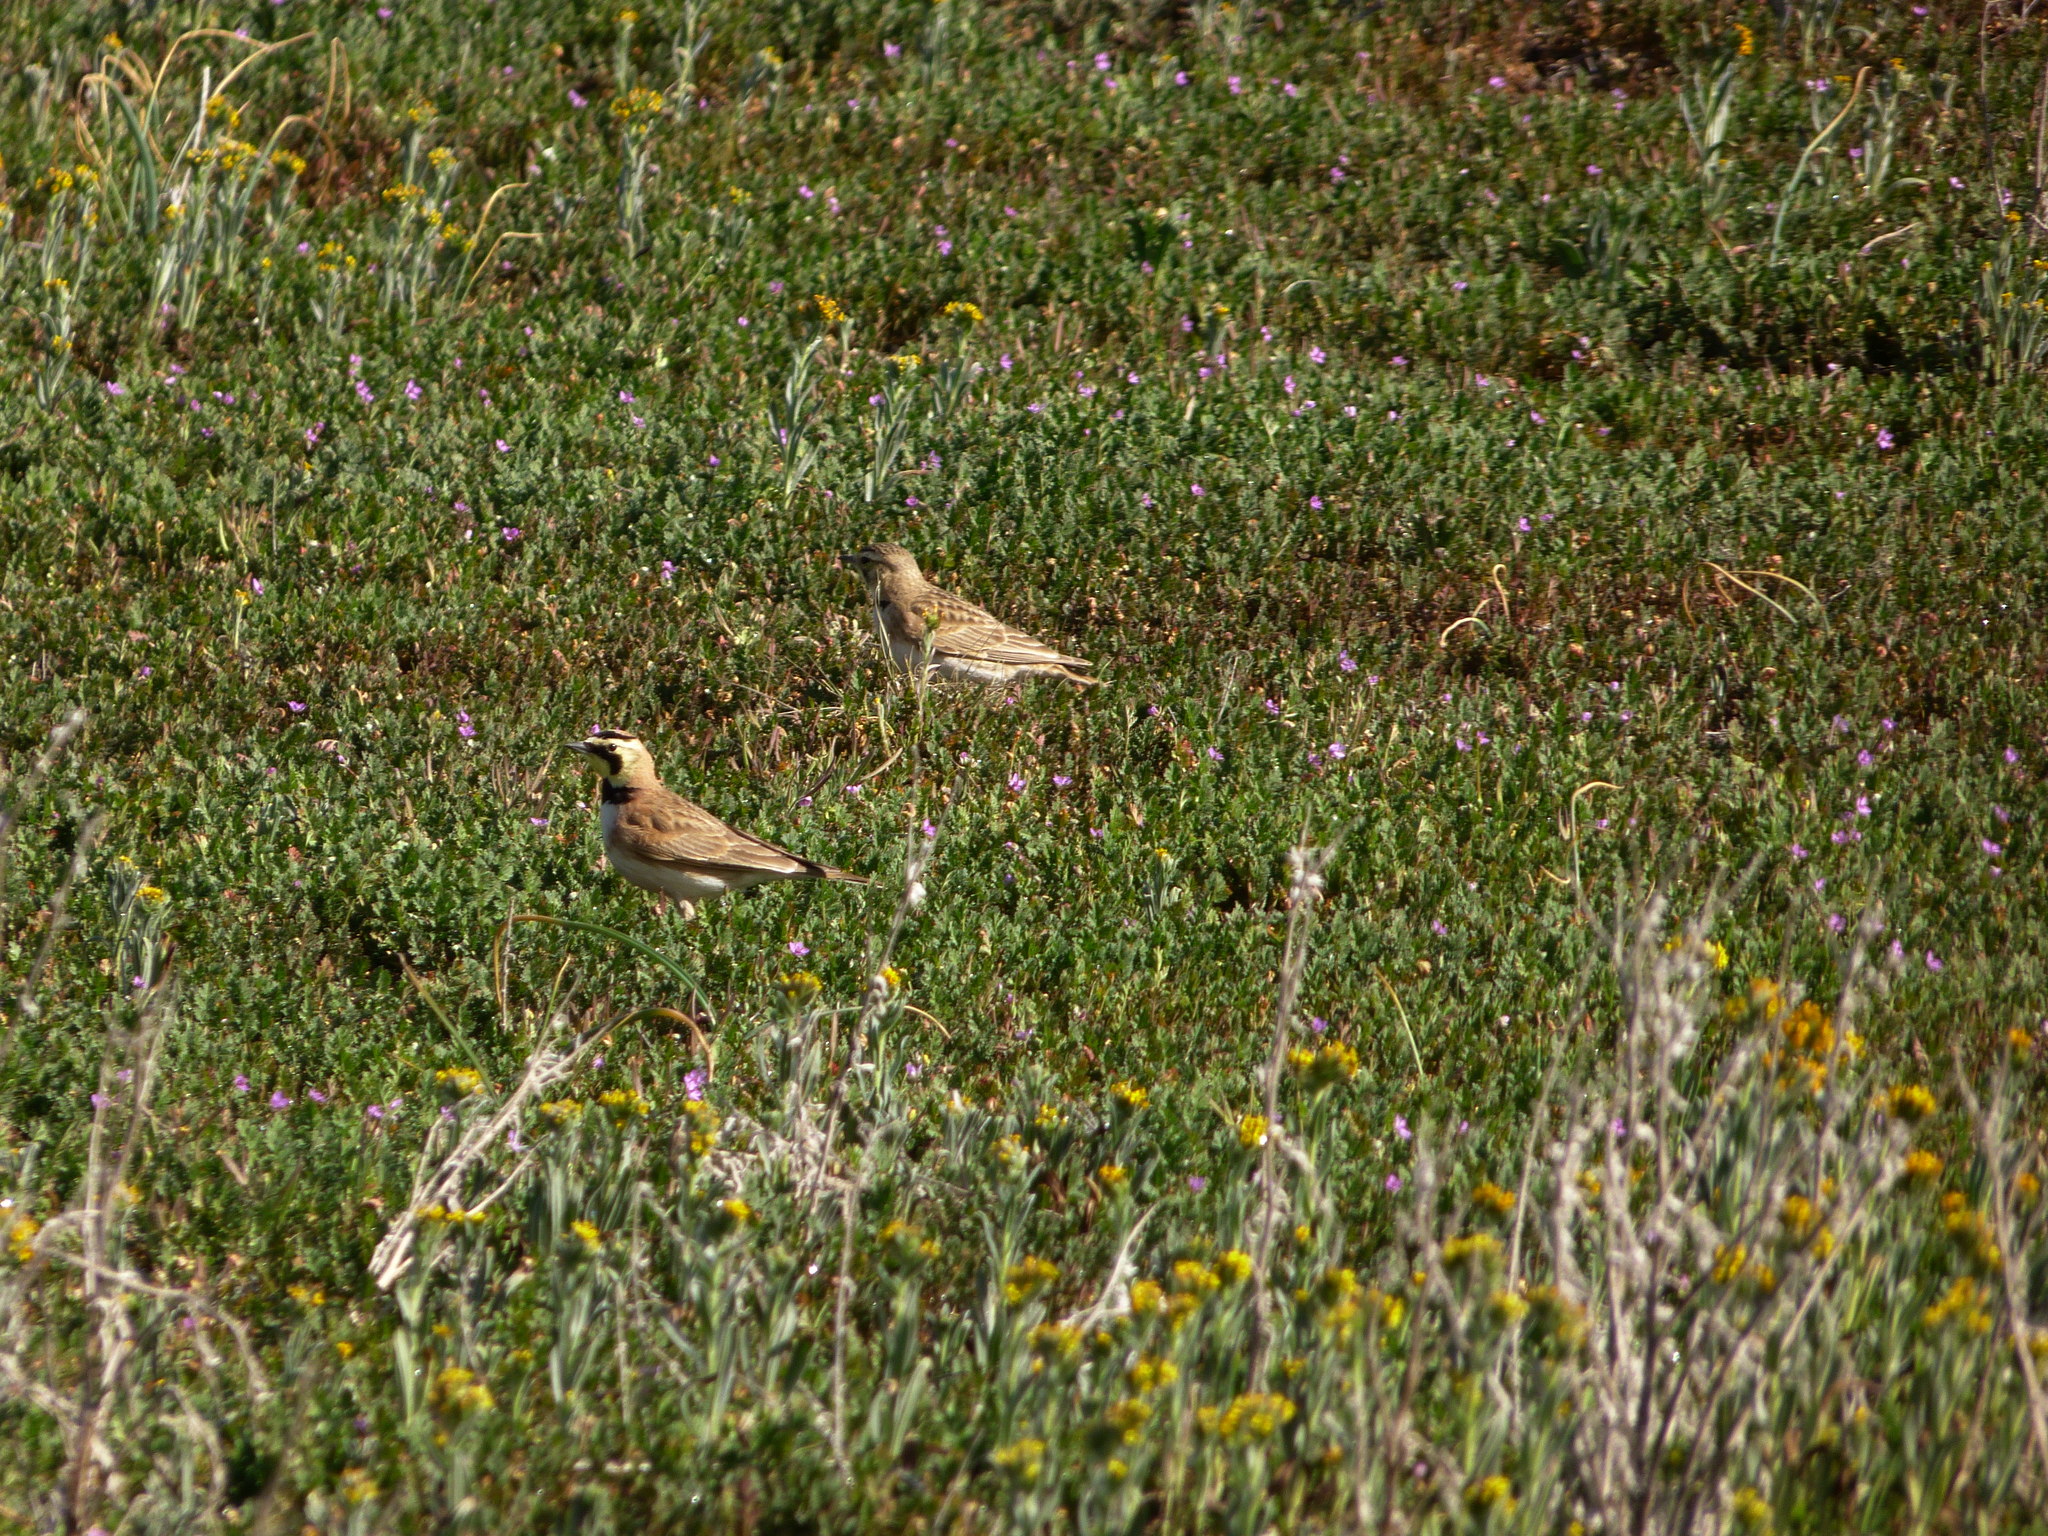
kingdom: Animalia
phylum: Chordata
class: Aves
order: Passeriformes
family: Alaudidae
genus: Eremophila
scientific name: Eremophila alpestris
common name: Horned lark
